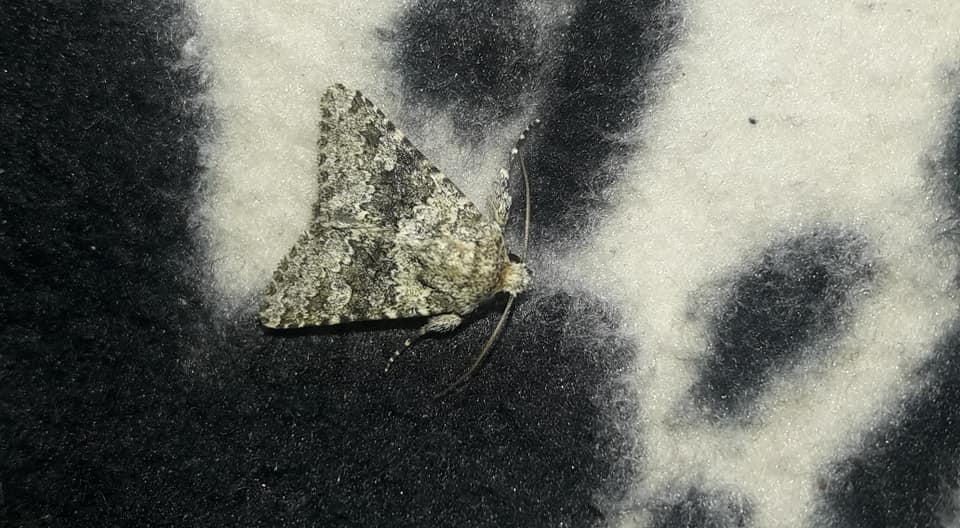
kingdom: Animalia
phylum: Arthropoda
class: Insecta
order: Lepidoptera
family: Noctuidae
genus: Hecatera
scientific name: Hecatera dysodea
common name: Small ranunculus
